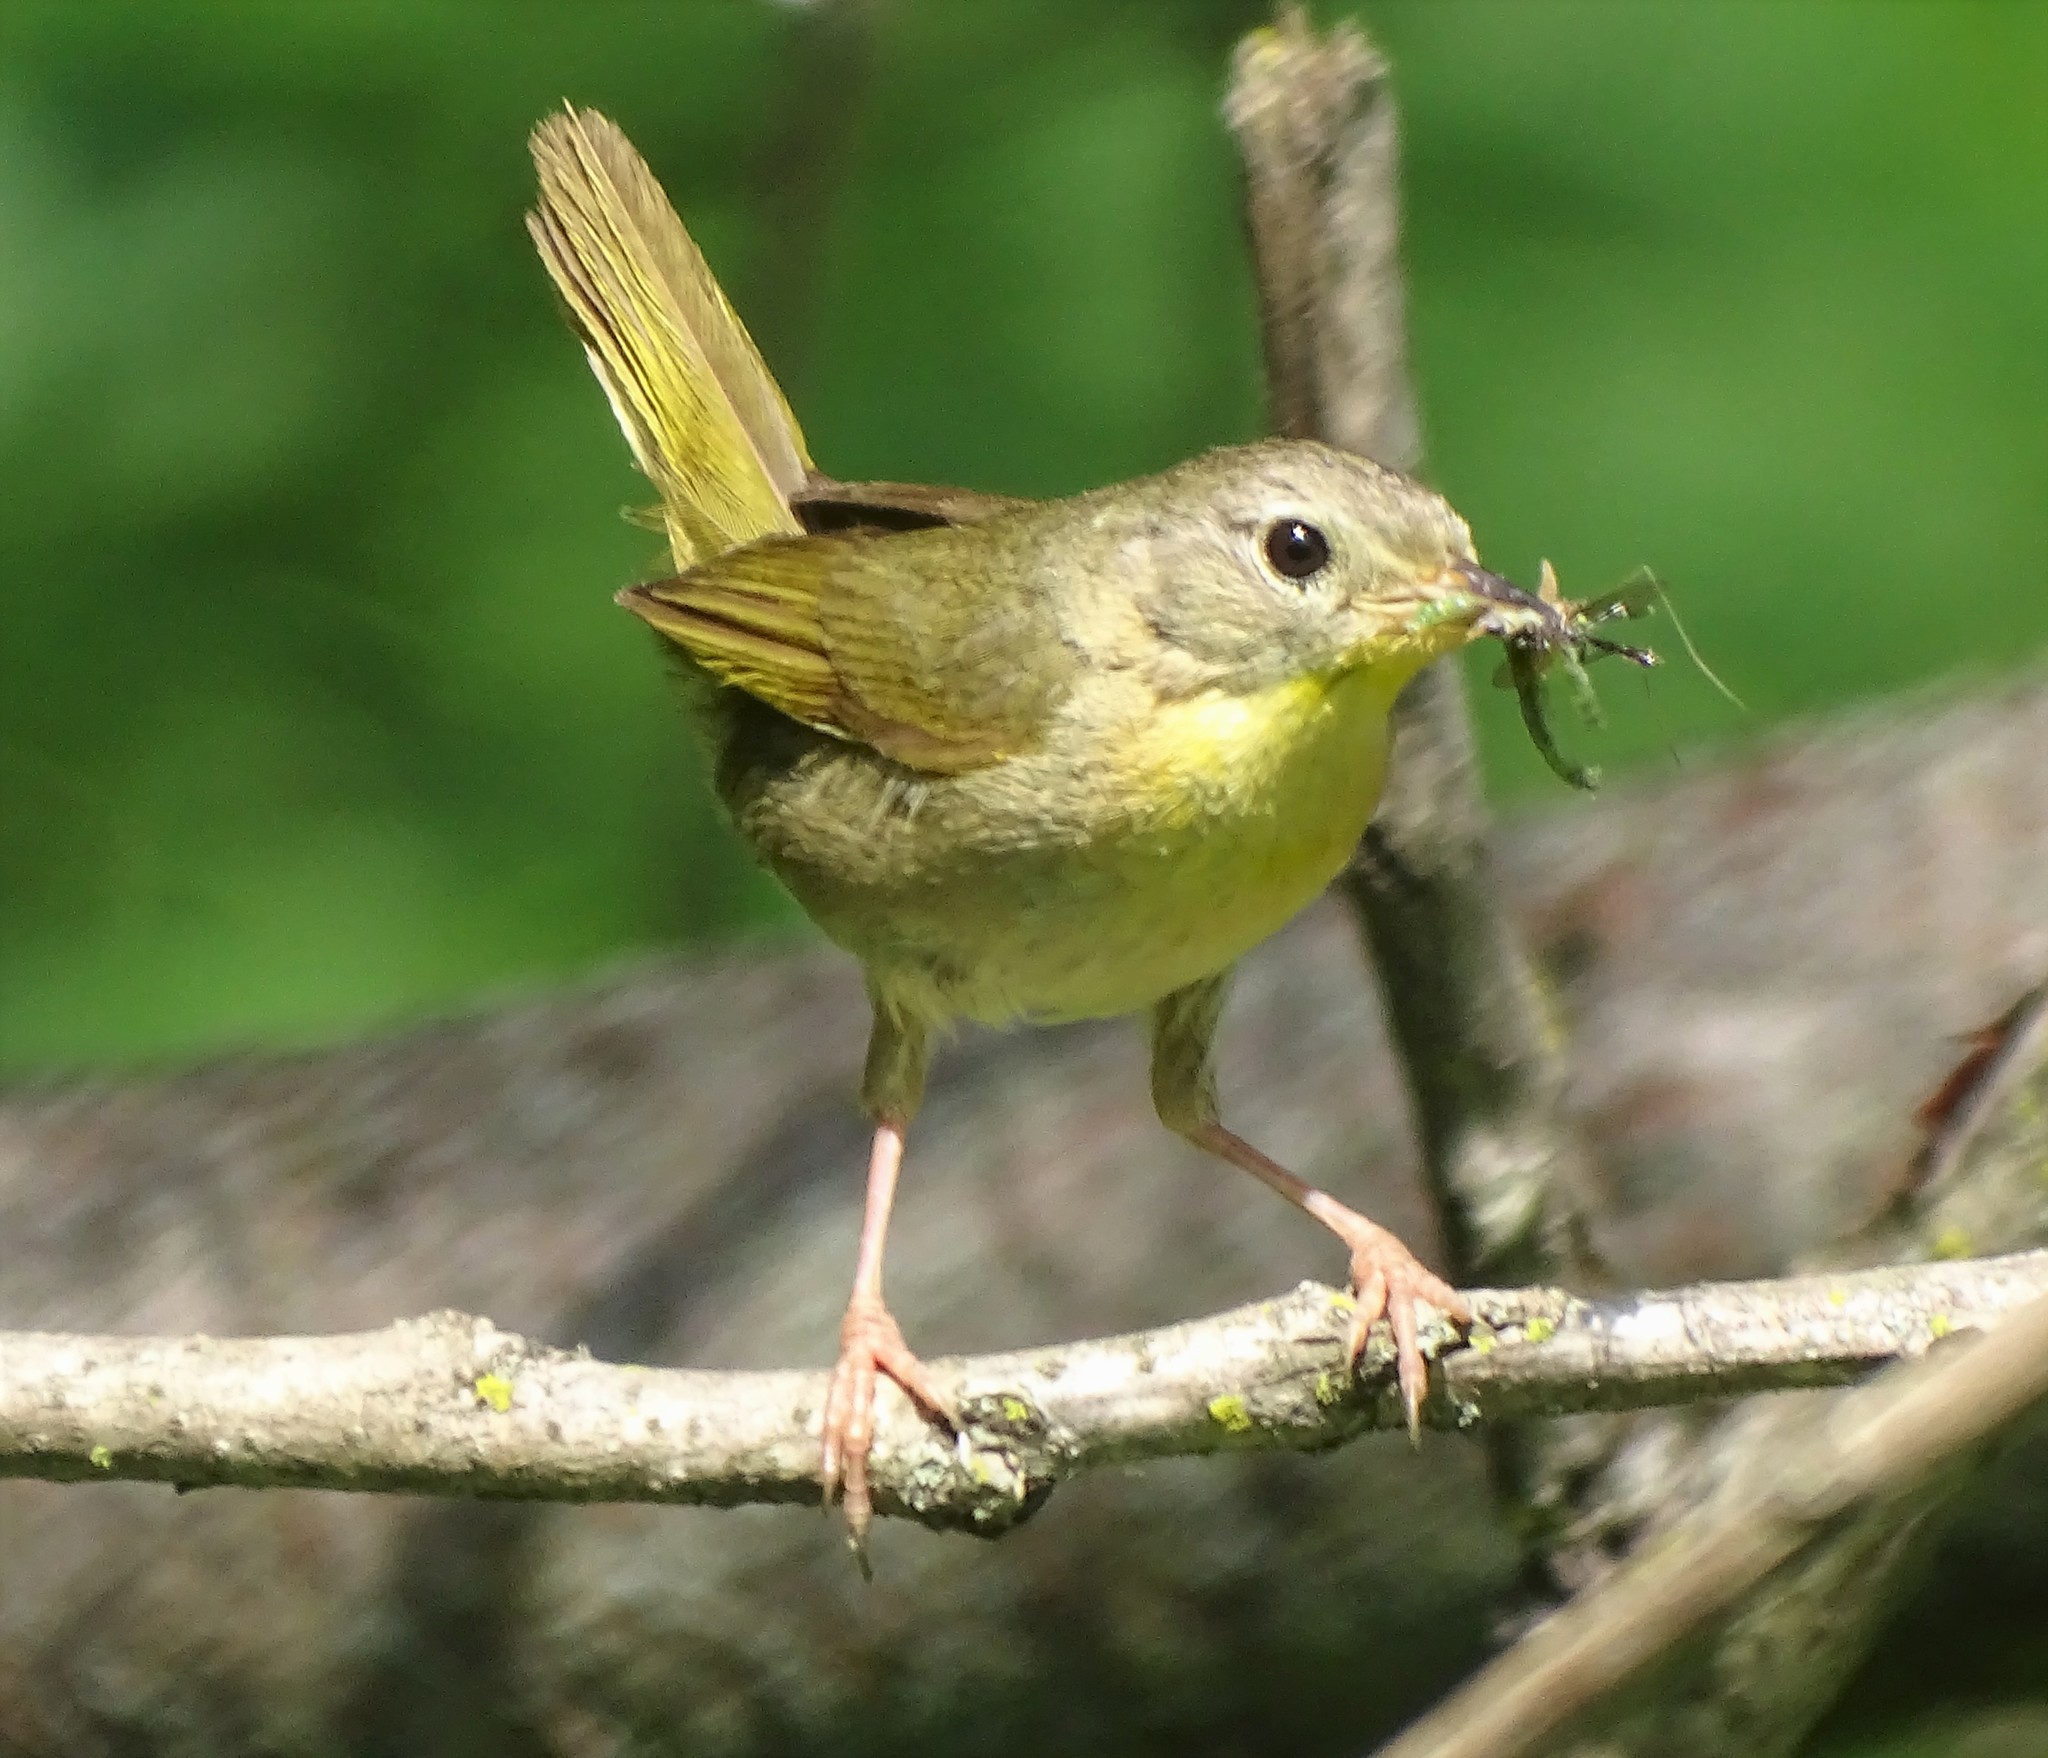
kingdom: Animalia
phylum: Chordata
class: Aves
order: Passeriformes
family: Parulidae
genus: Geothlypis
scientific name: Geothlypis trichas
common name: Common yellowthroat
